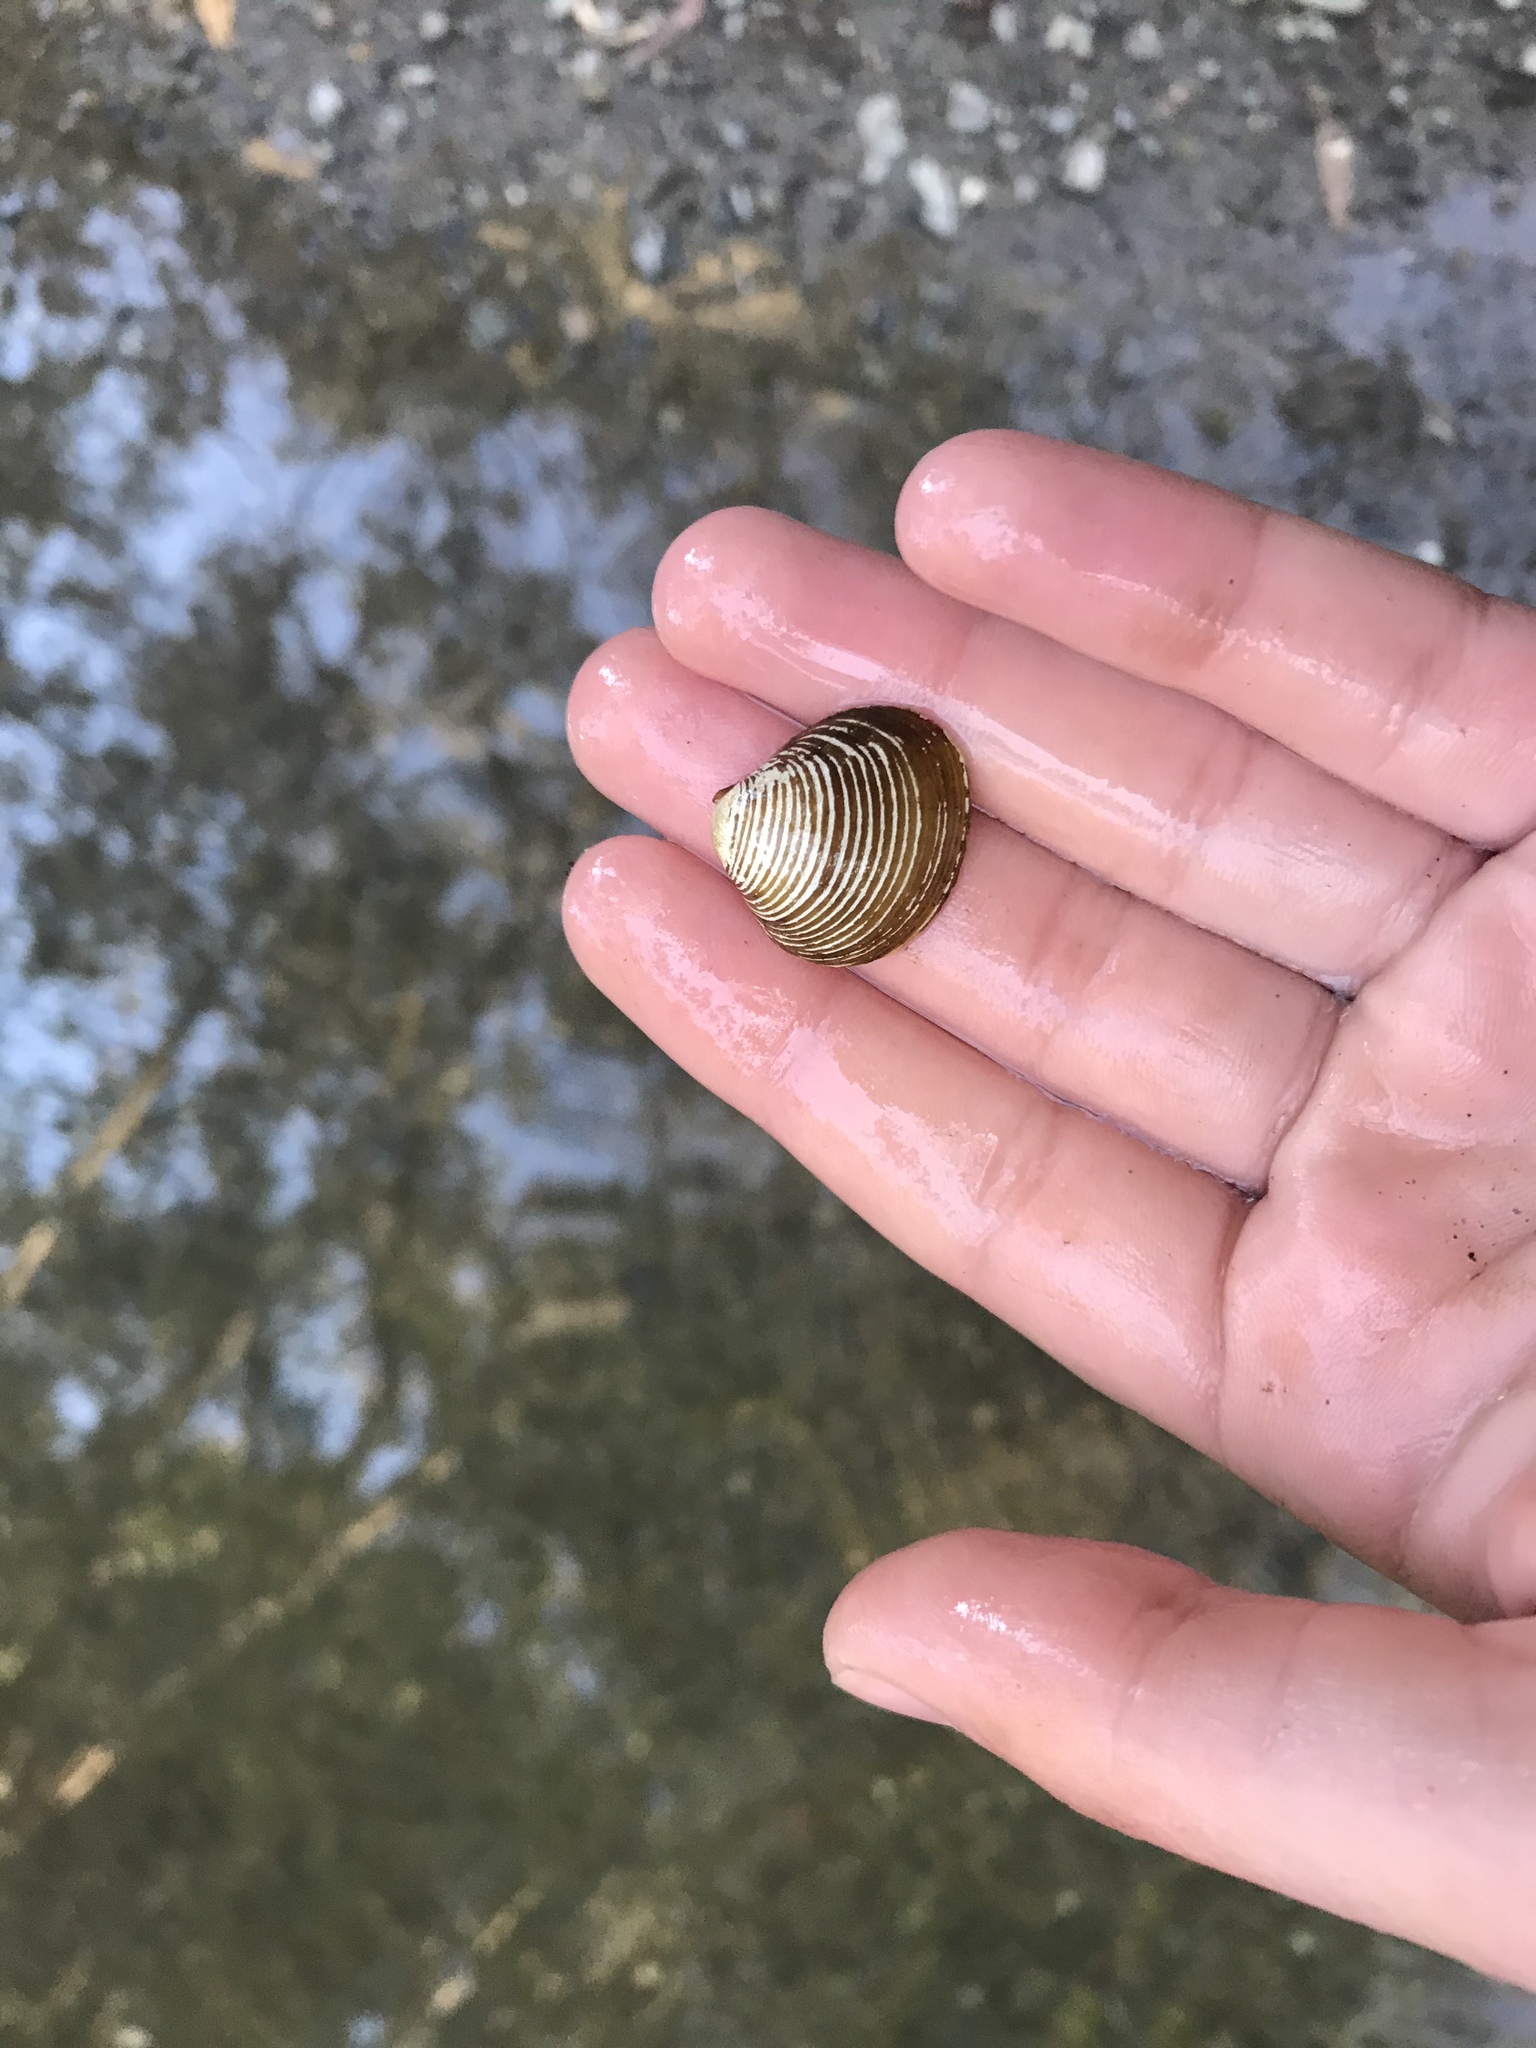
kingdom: Animalia
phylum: Mollusca
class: Bivalvia
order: Venerida
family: Cyrenidae
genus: Corbicula
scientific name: Corbicula fluminea
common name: Asian clam
